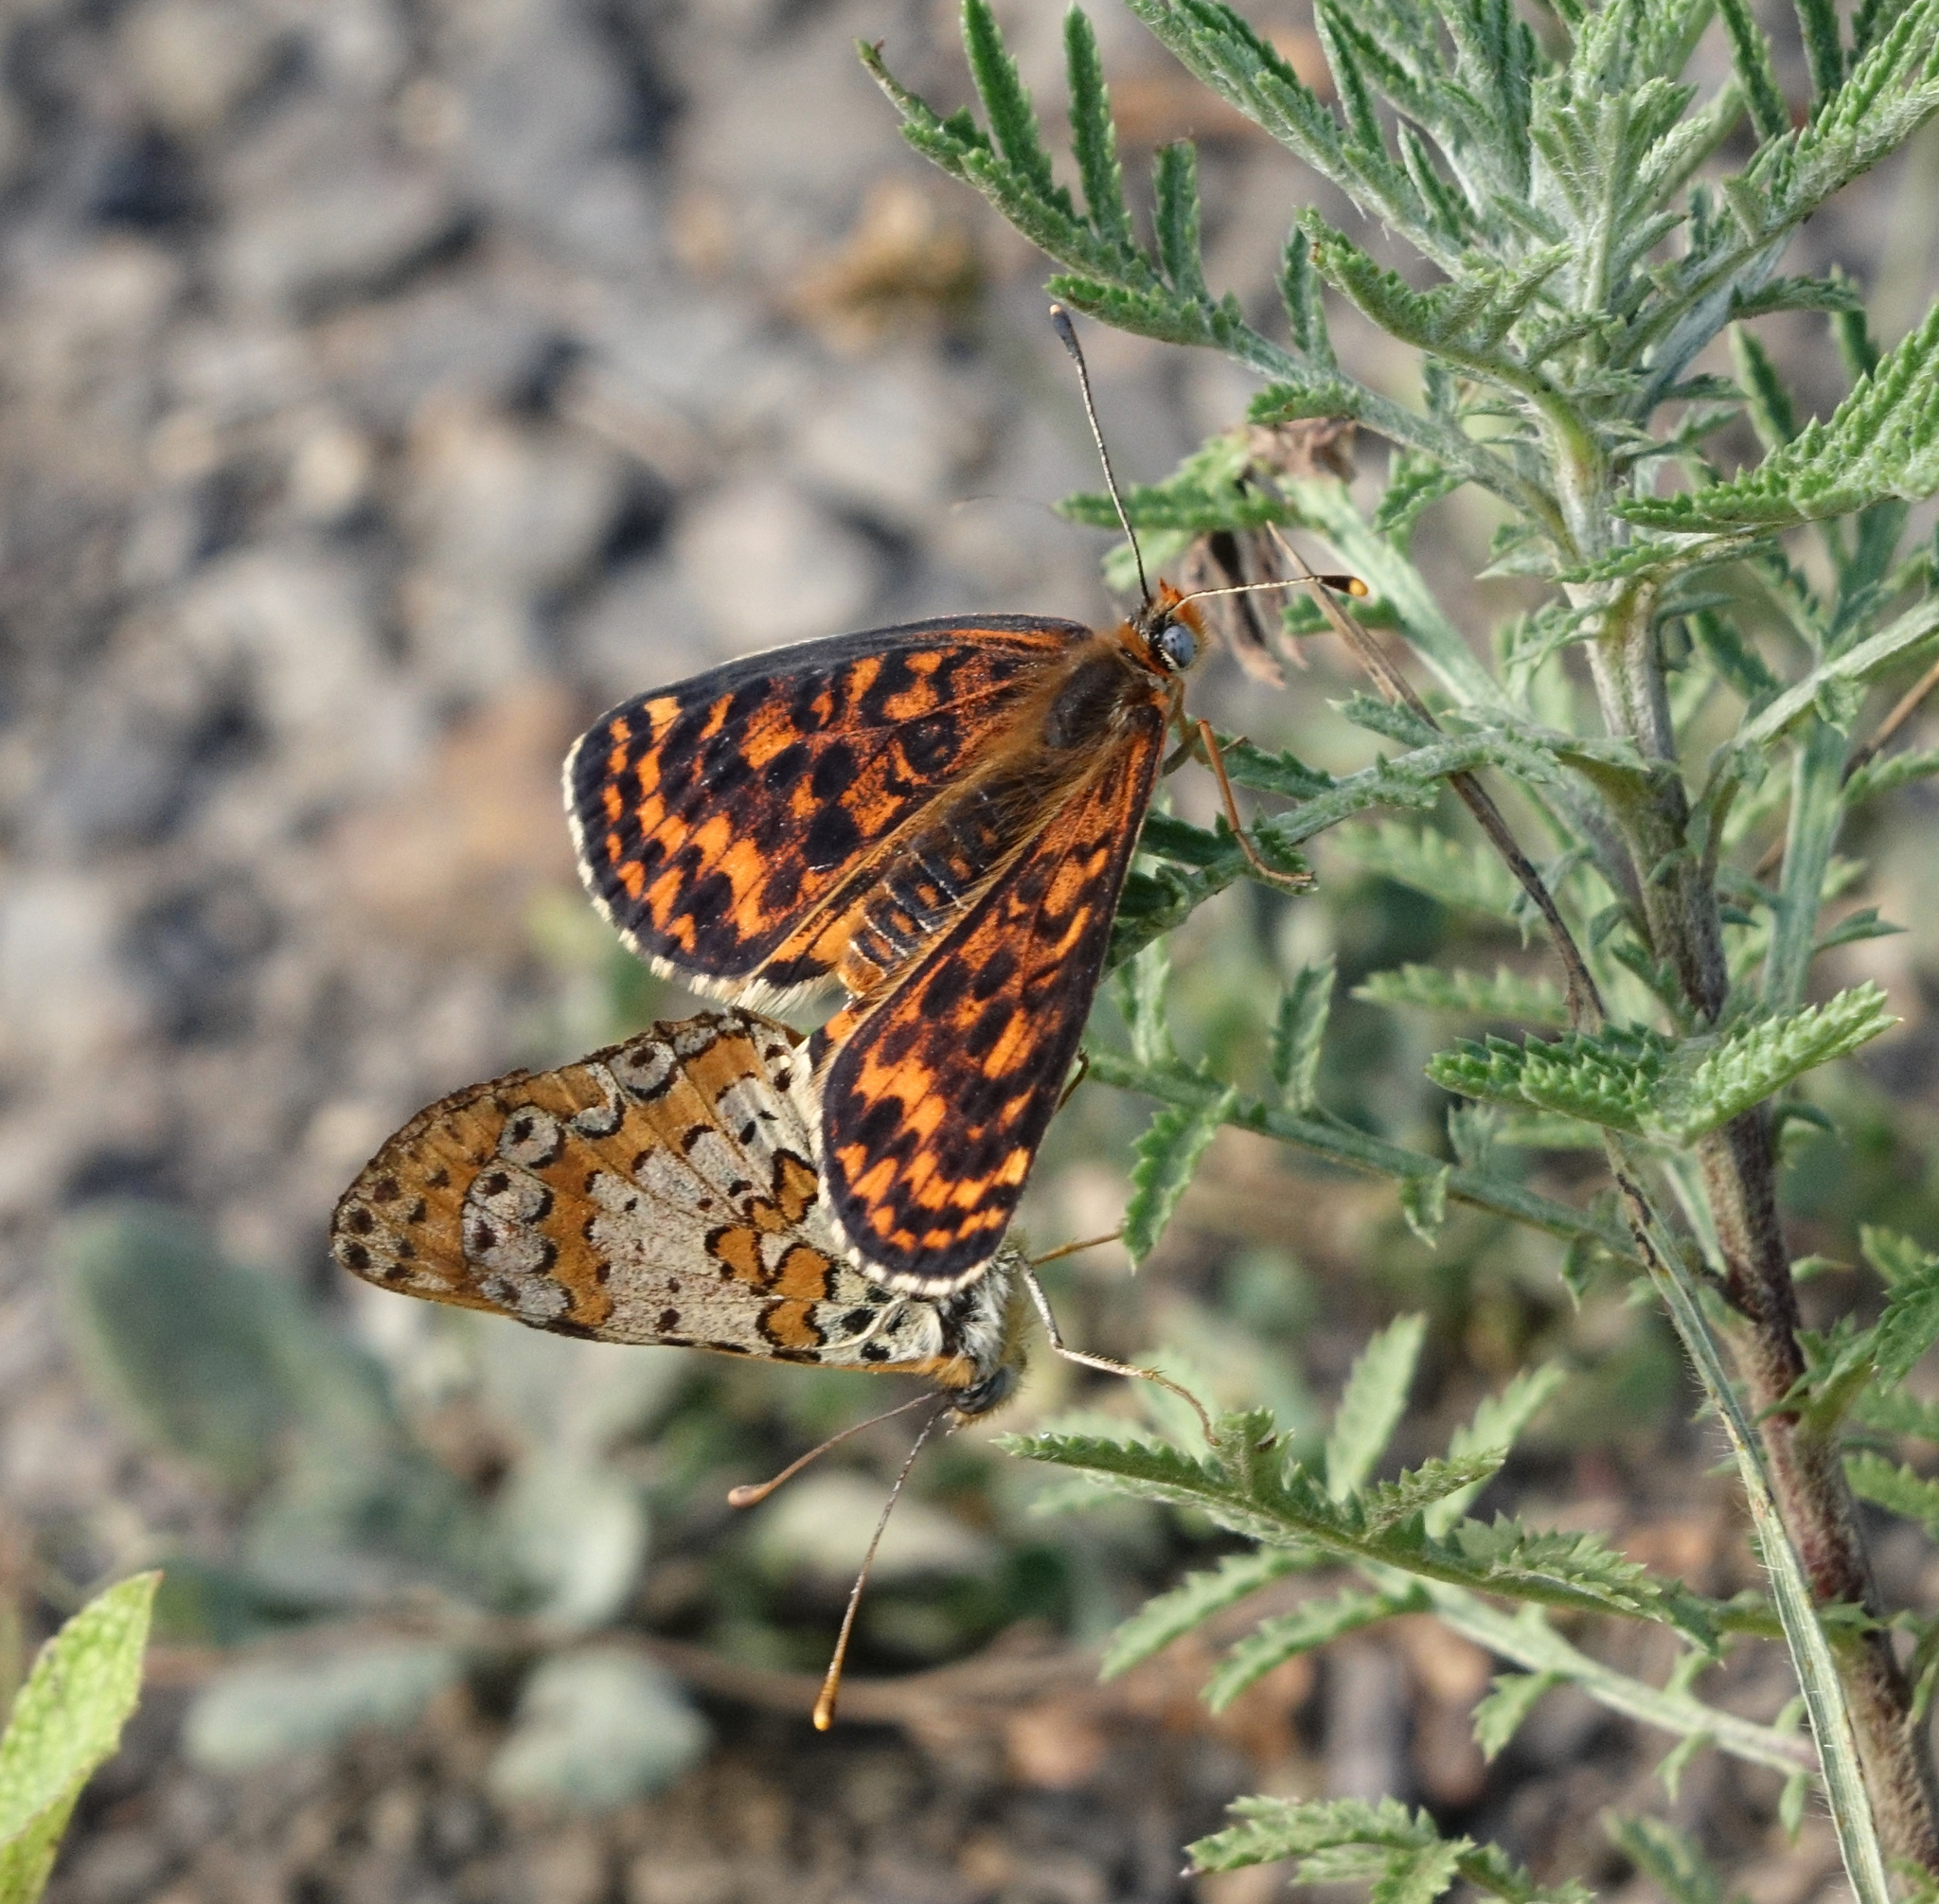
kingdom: Animalia
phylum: Arthropoda
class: Insecta
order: Lepidoptera
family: Nymphalidae
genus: Melitaea
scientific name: Melitaea cinxia
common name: Glanville fritillary
